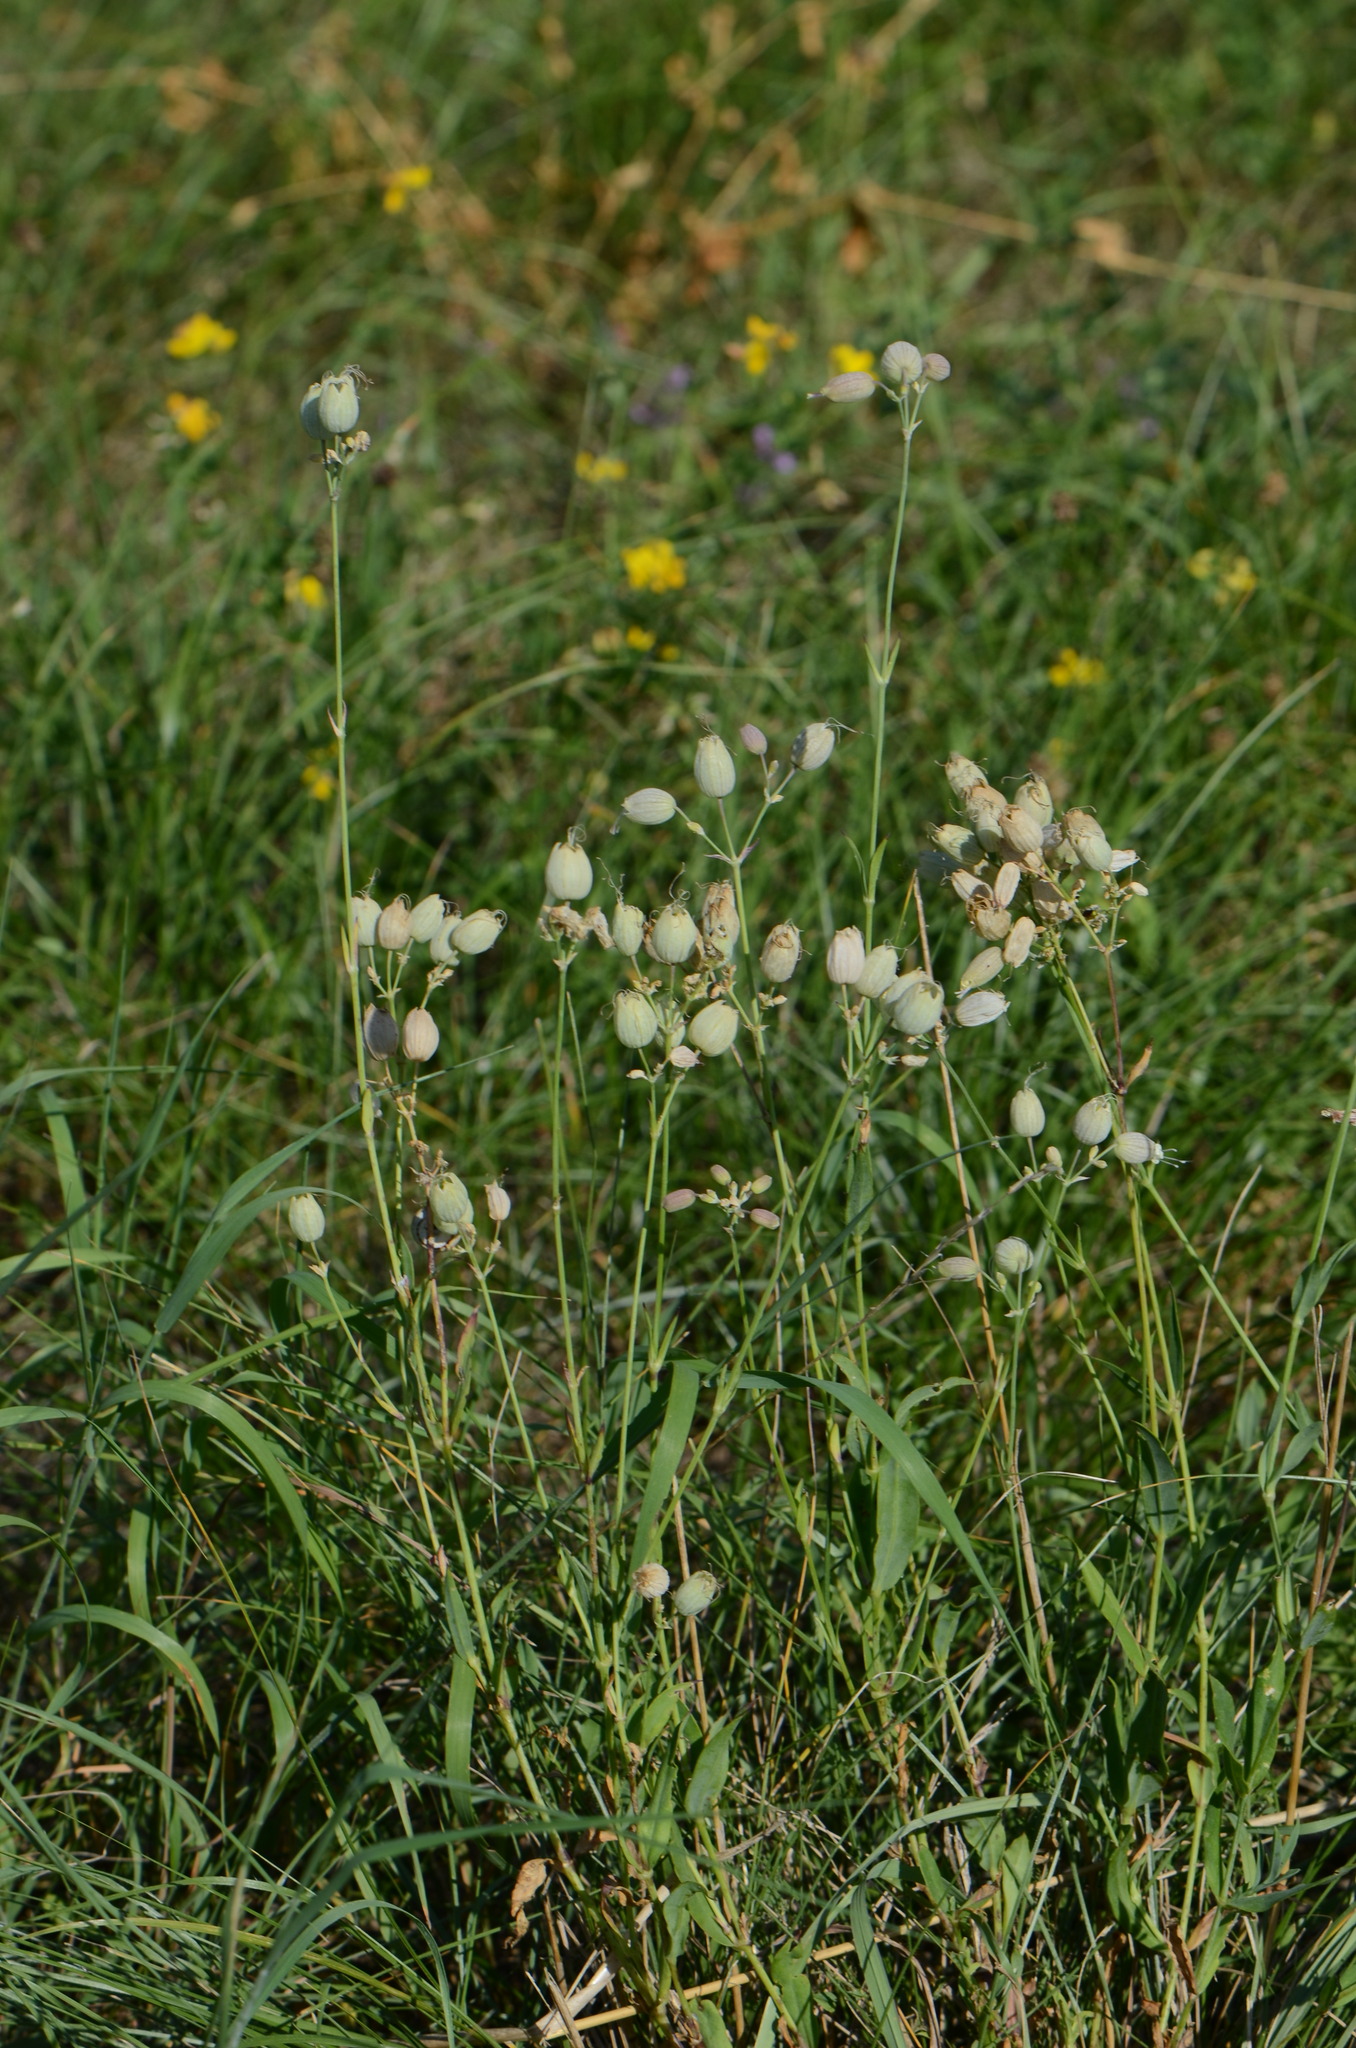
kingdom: Plantae
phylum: Tracheophyta
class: Magnoliopsida
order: Caryophyllales
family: Caryophyllaceae
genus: Silene
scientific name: Silene vulgaris
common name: Bladder campion
